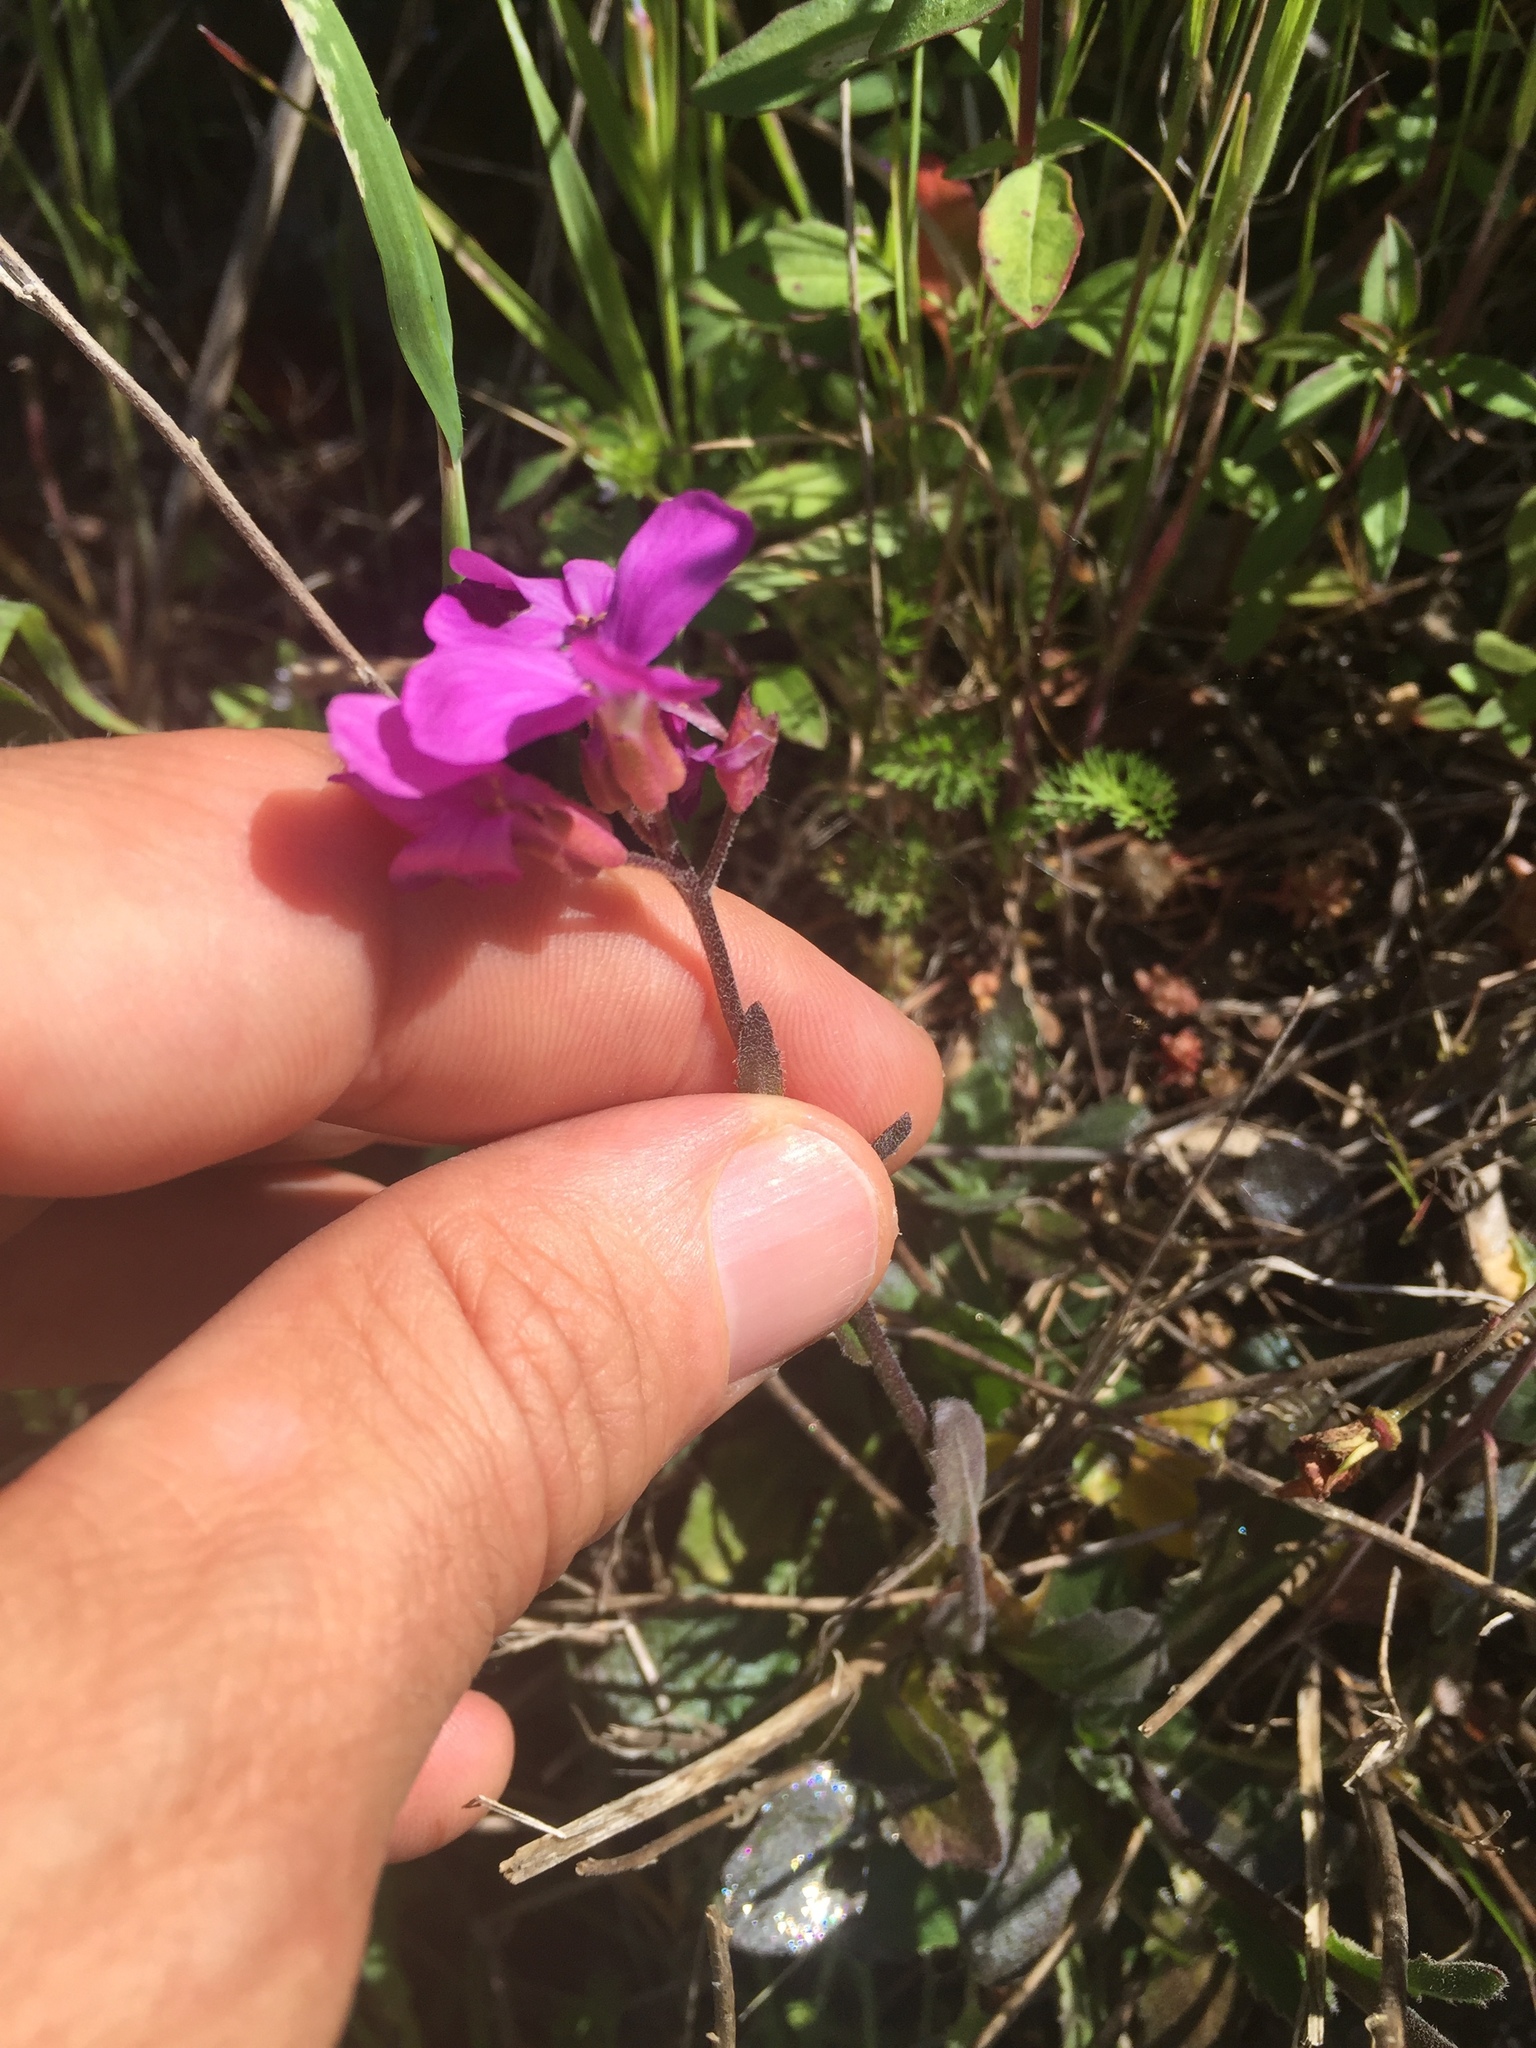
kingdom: Plantae
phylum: Tracheophyta
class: Magnoliopsida
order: Brassicales
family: Brassicaceae
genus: Arabis
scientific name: Arabis blepharophylla
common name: Rose rockcress
